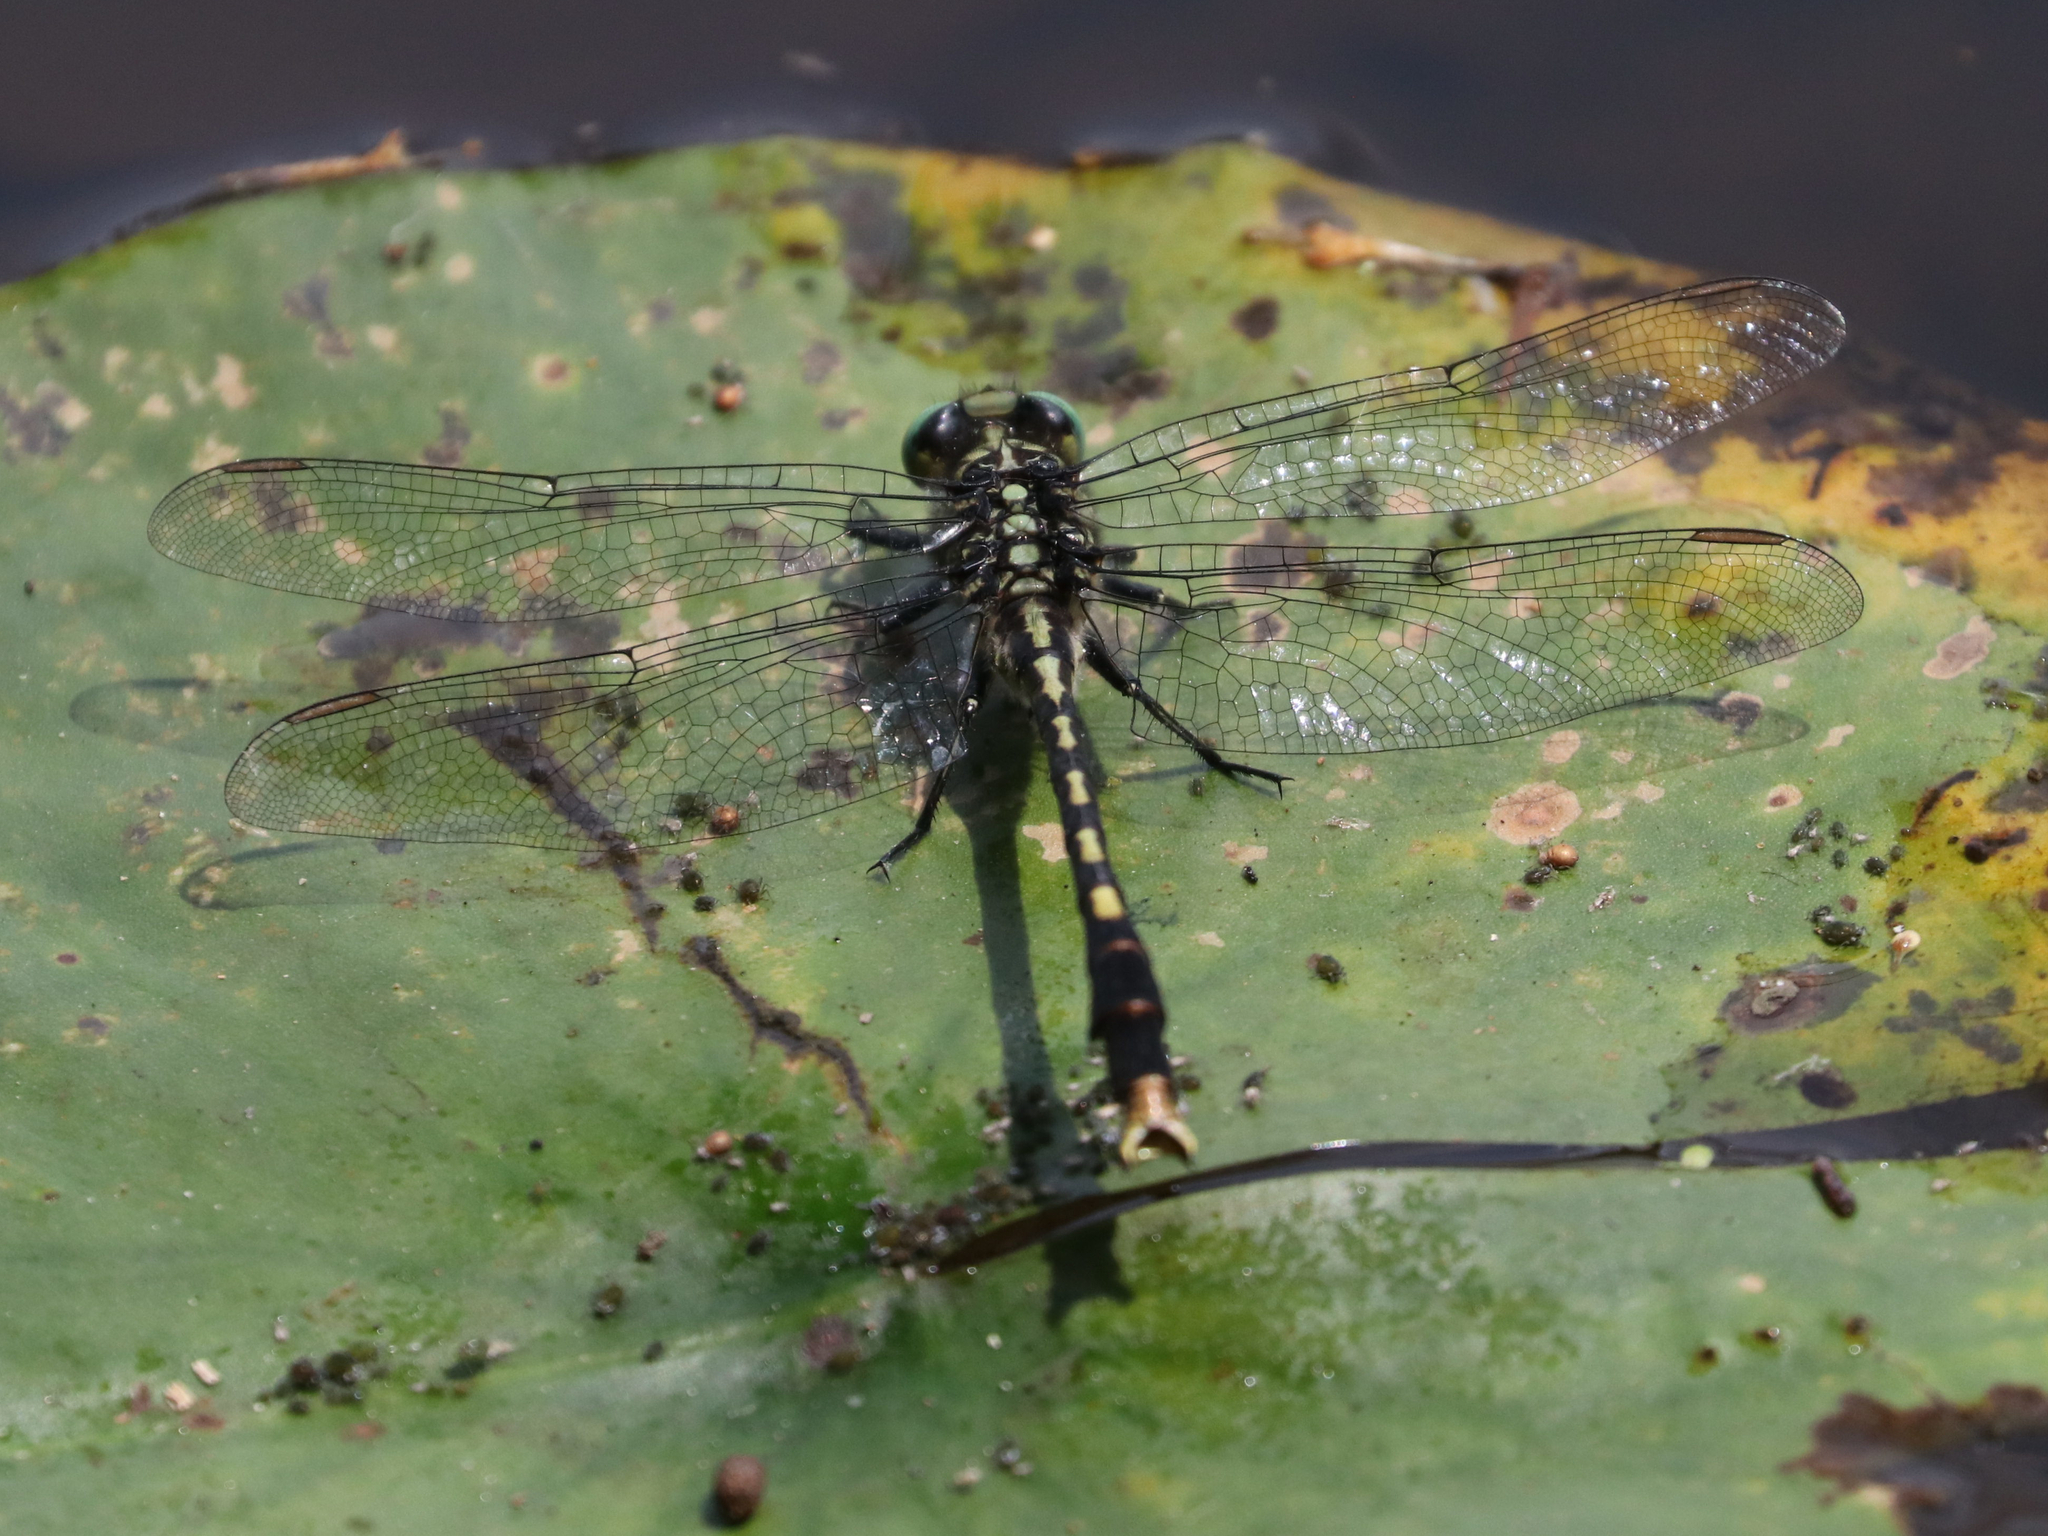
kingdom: Animalia
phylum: Arthropoda
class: Insecta
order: Odonata
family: Gomphidae
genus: Arigomphus
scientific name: Arigomphus villosipes
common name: Unicorn clubtail
